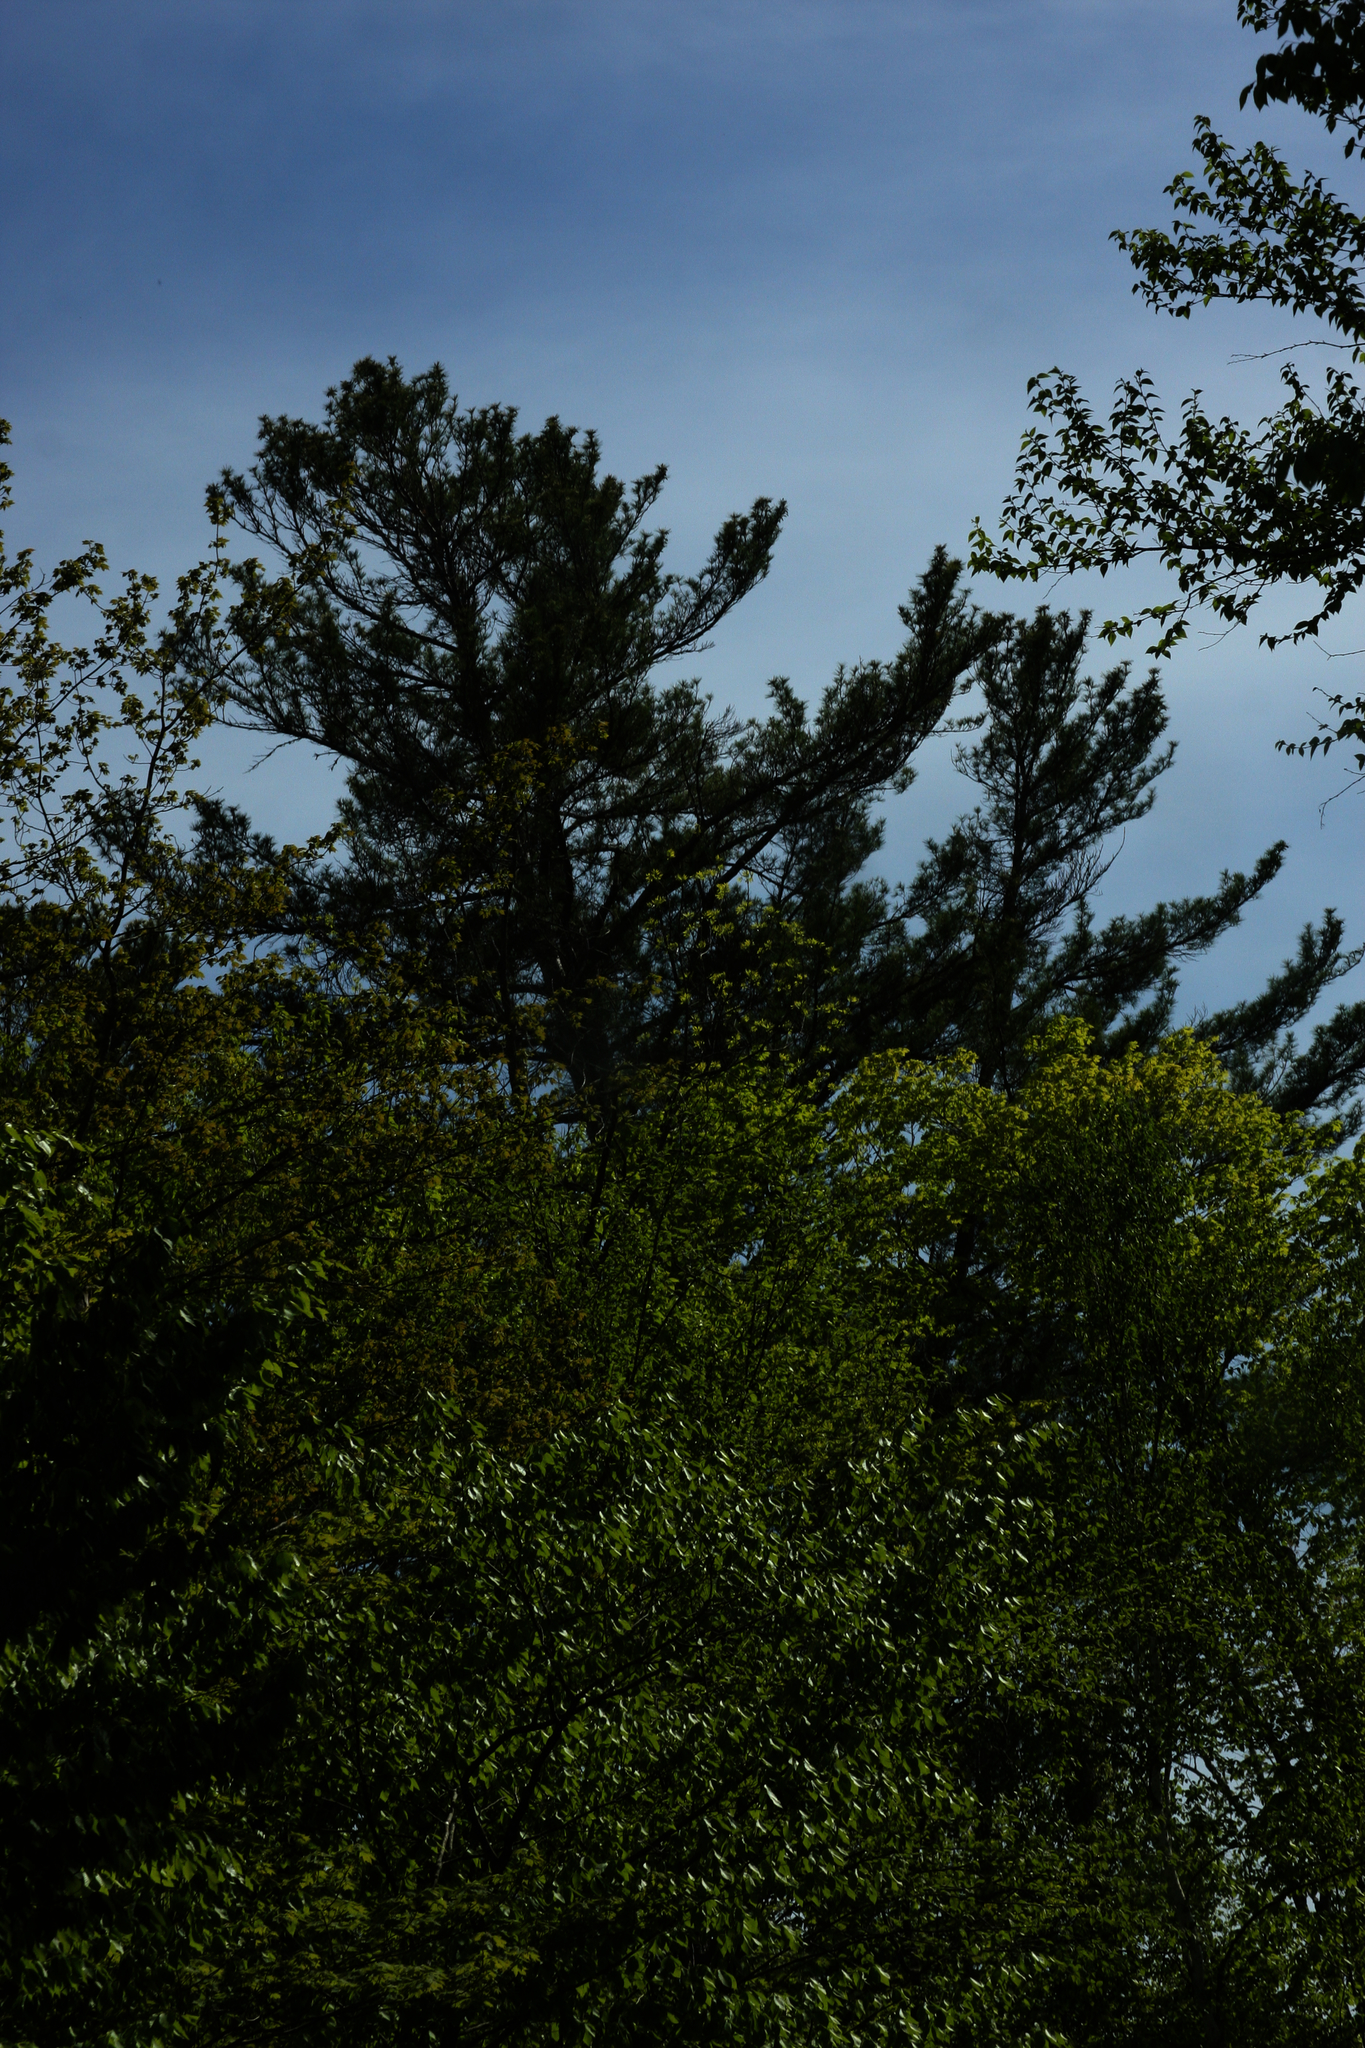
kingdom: Plantae
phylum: Tracheophyta
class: Pinopsida
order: Pinales
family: Pinaceae
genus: Pinus
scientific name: Pinus strobus
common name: Weymouth pine
